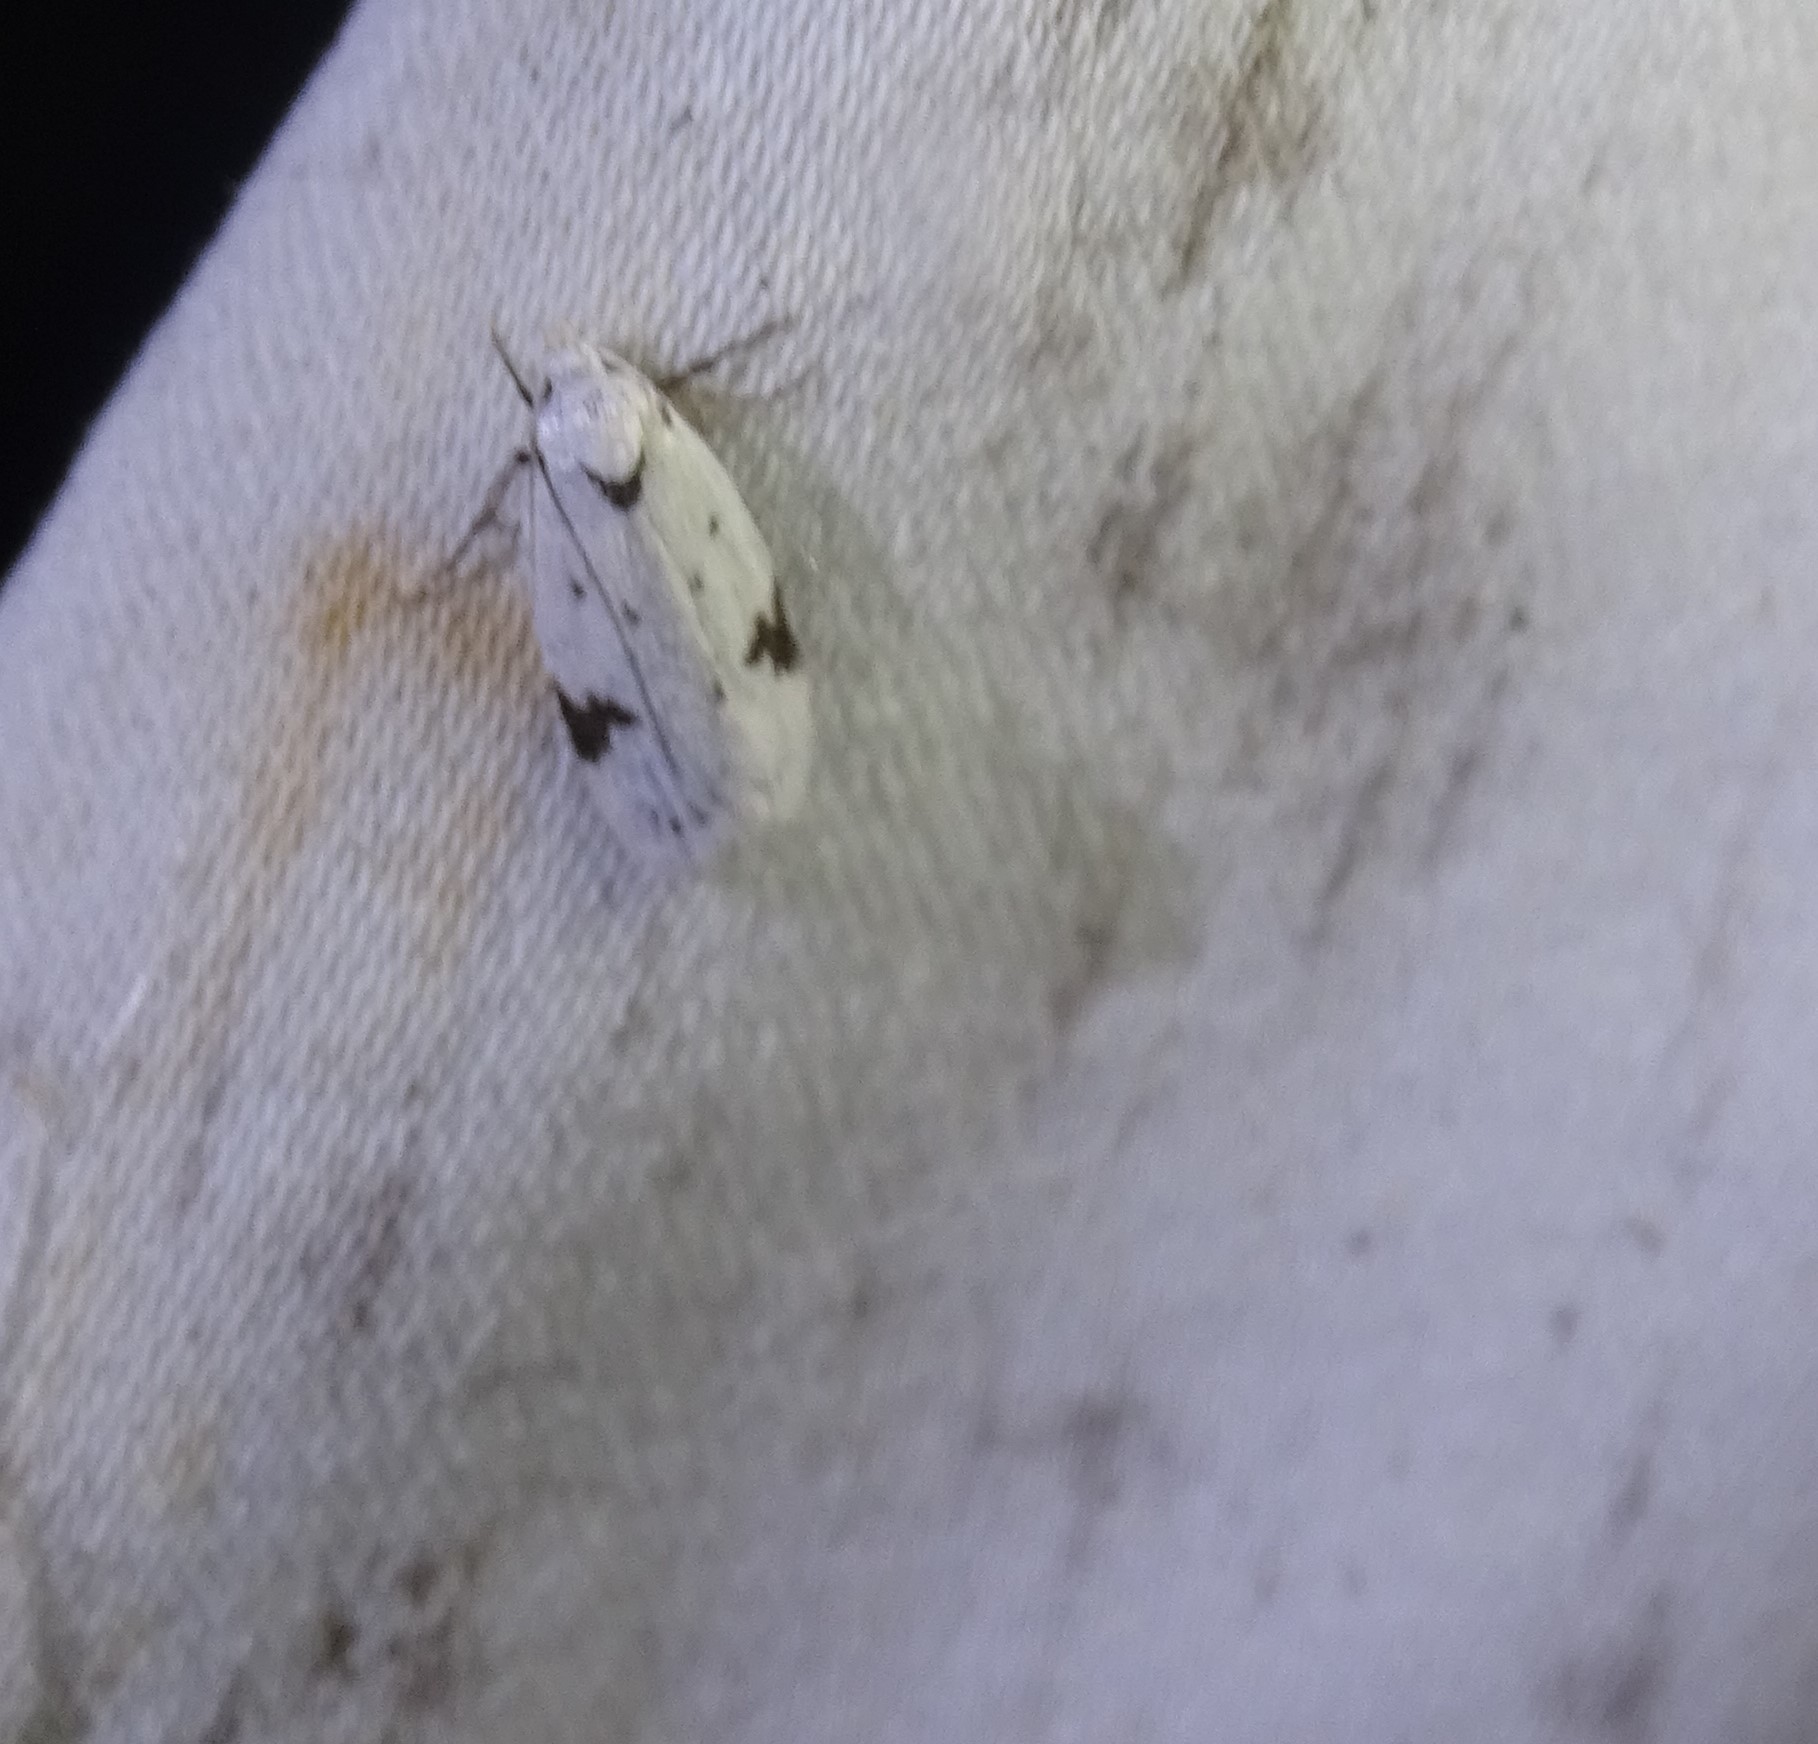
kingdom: Animalia
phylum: Arthropoda
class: Insecta
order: Lepidoptera
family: Oecophoridae
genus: Inga
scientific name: Inga sparsiciliella
